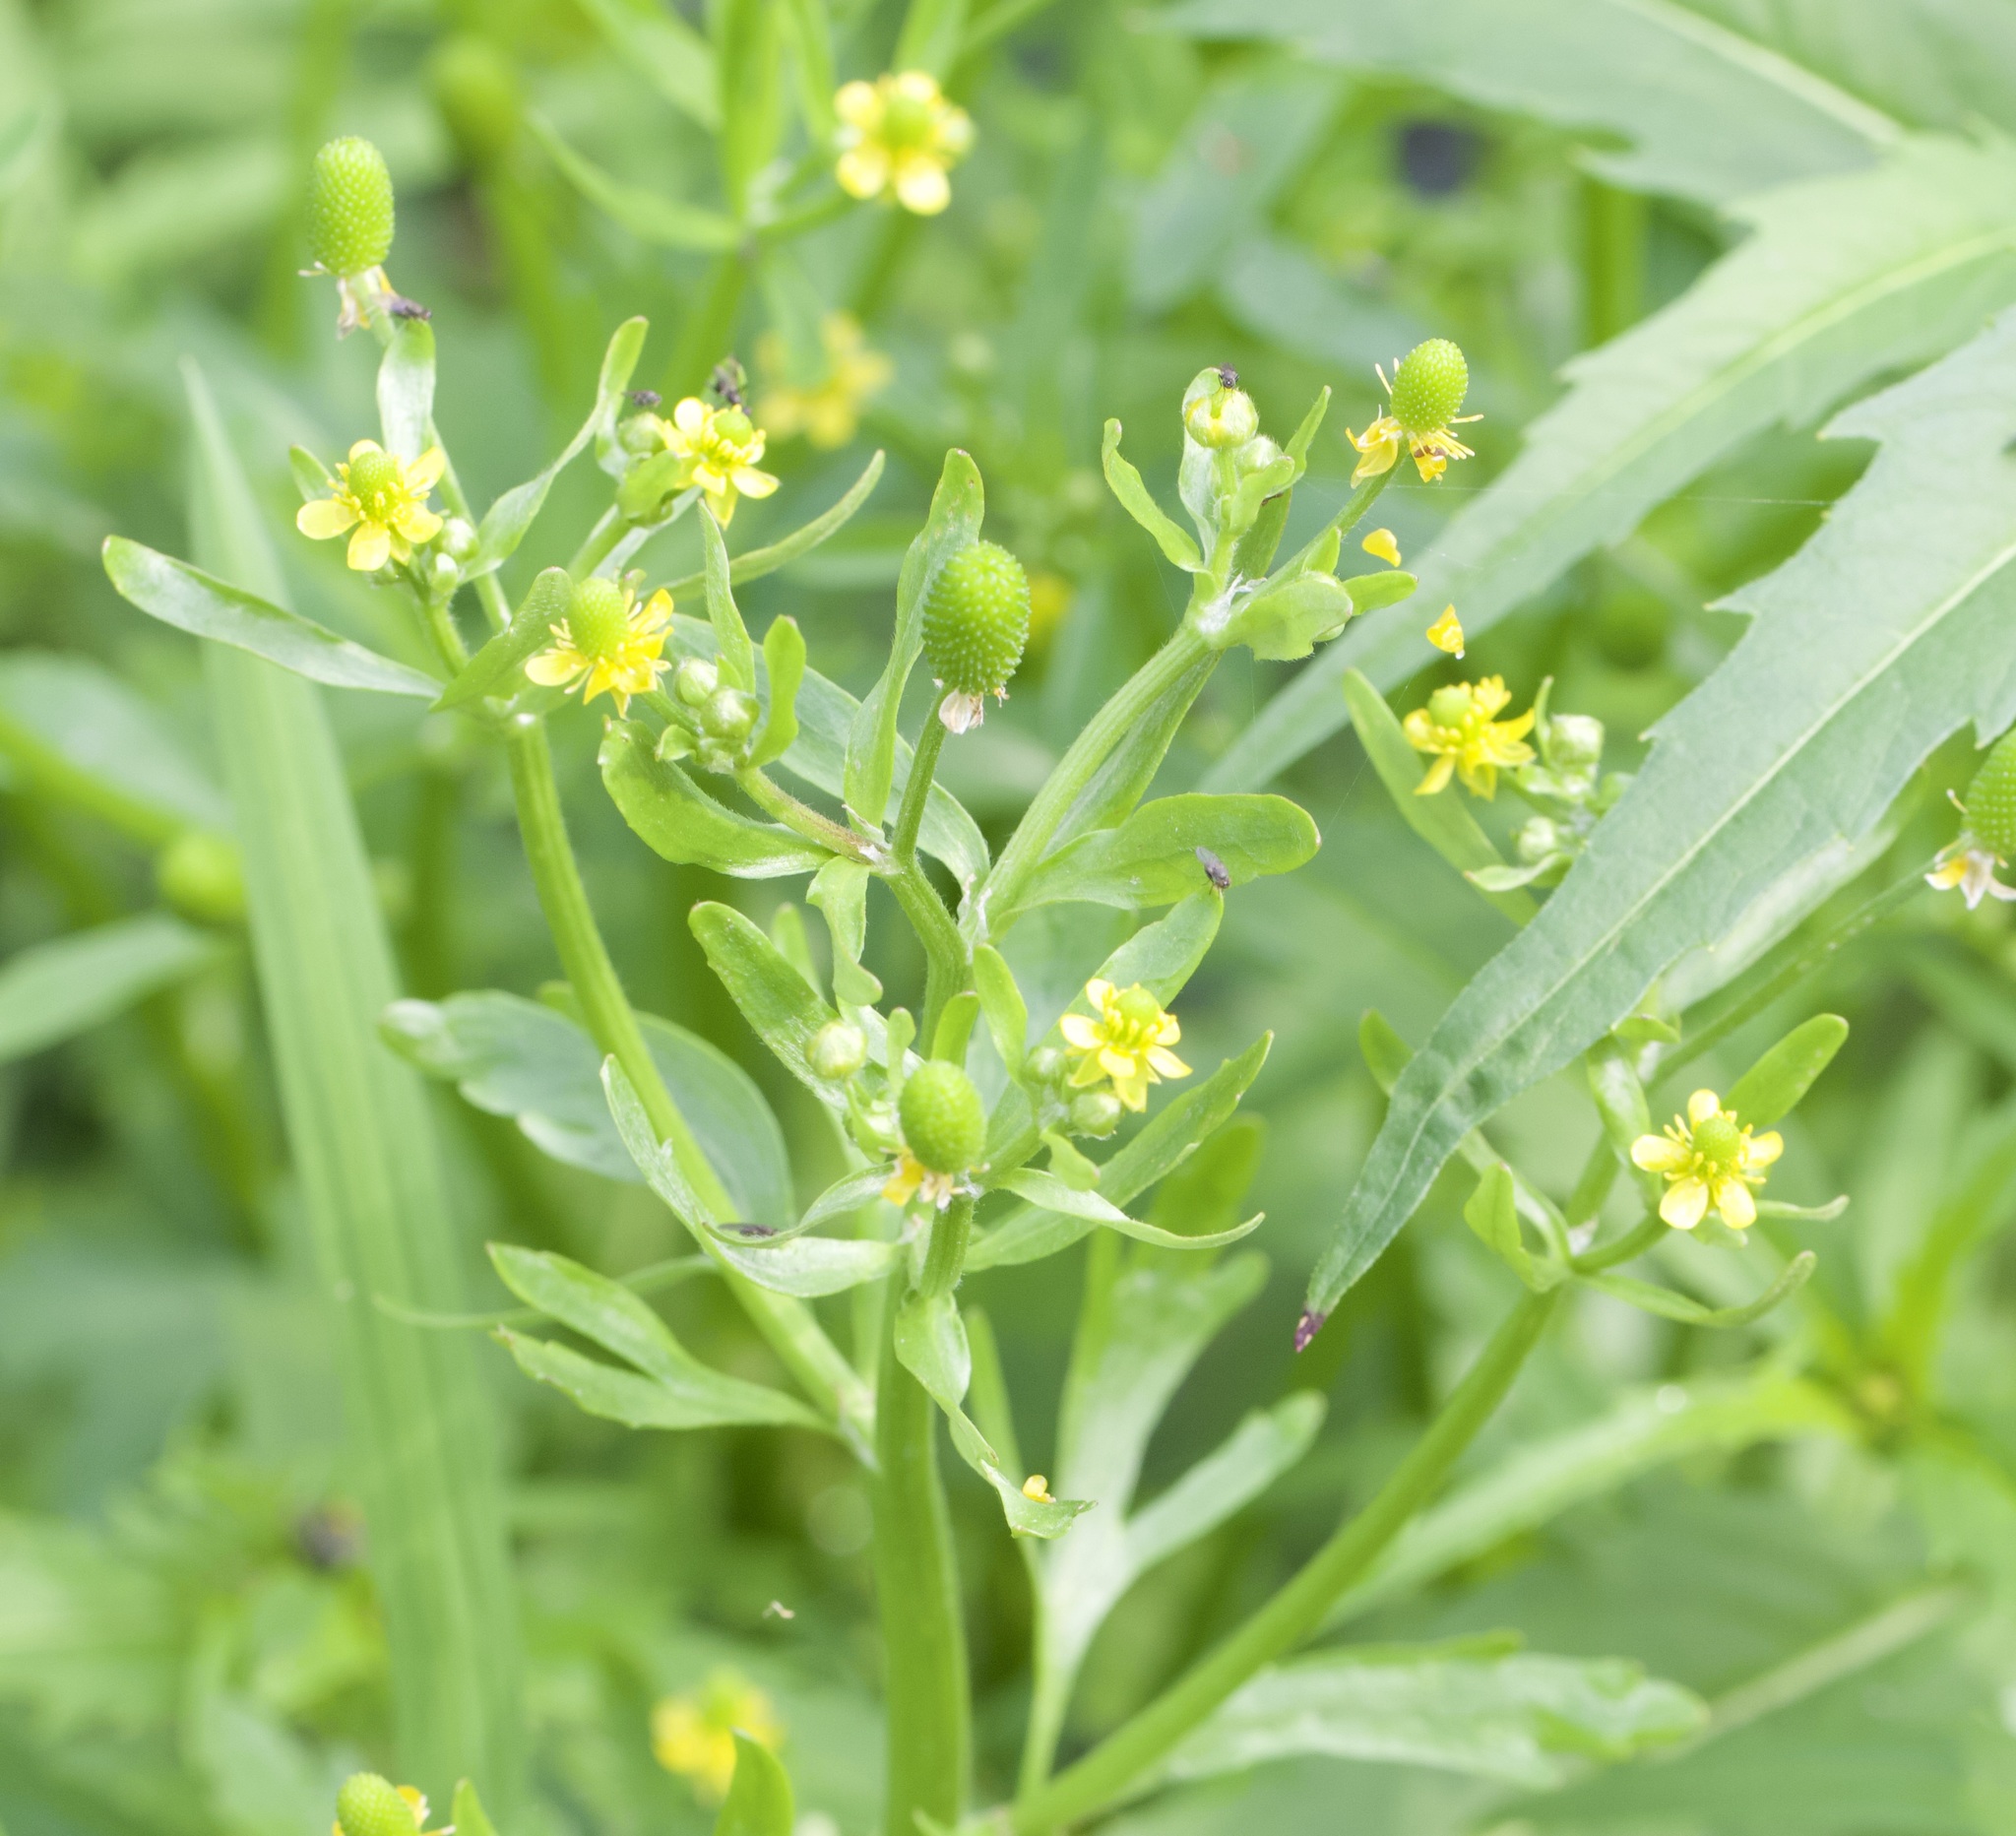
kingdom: Plantae
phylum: Tracheophyta
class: Magnoliopsida
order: Ranunculales
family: Ranunculaceae
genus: Ranunculus
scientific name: Ranunculus sceleratus
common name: Celery-leaved buttercup
